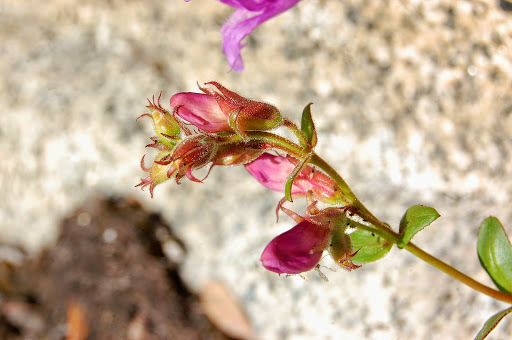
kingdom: Plantae
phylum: Tracheophyta
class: Magnoliopsida
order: Lamiales
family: Plantaginaceae
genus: Penstemon
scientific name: Penstemon newberryi
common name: Mountain-pride
